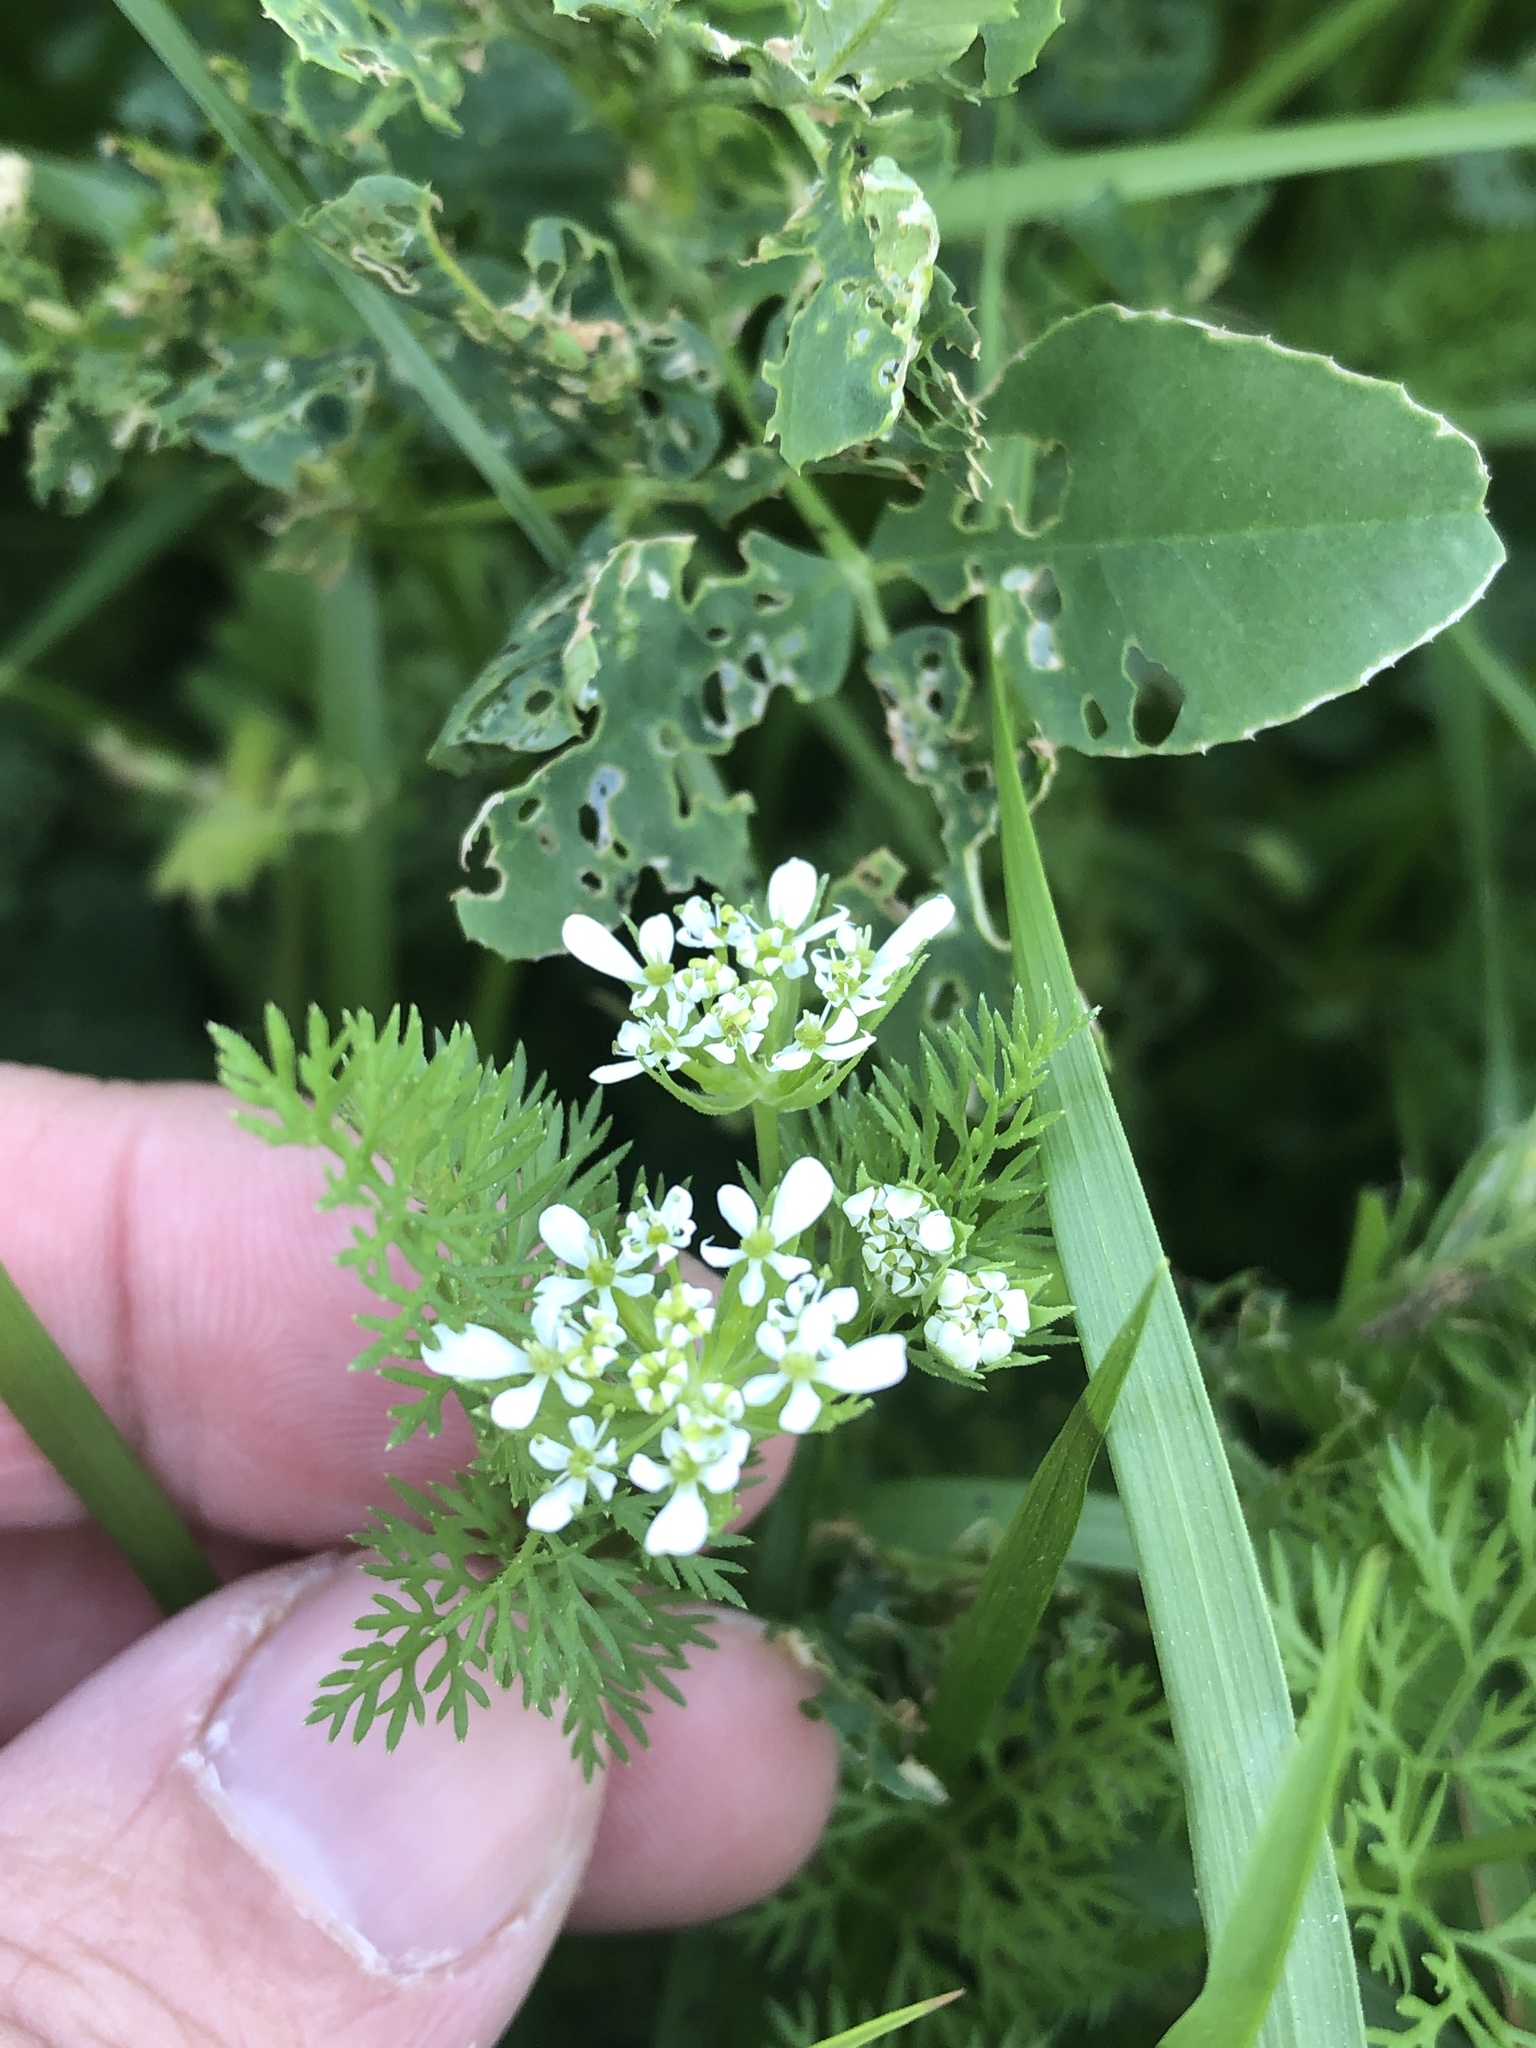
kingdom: Plantae
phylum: Tracheophyta
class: Magnoliopsida
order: Apiales
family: Apiaceae
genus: Scandix
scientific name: Scandix pecten-veneris
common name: Shepherd's-needle
